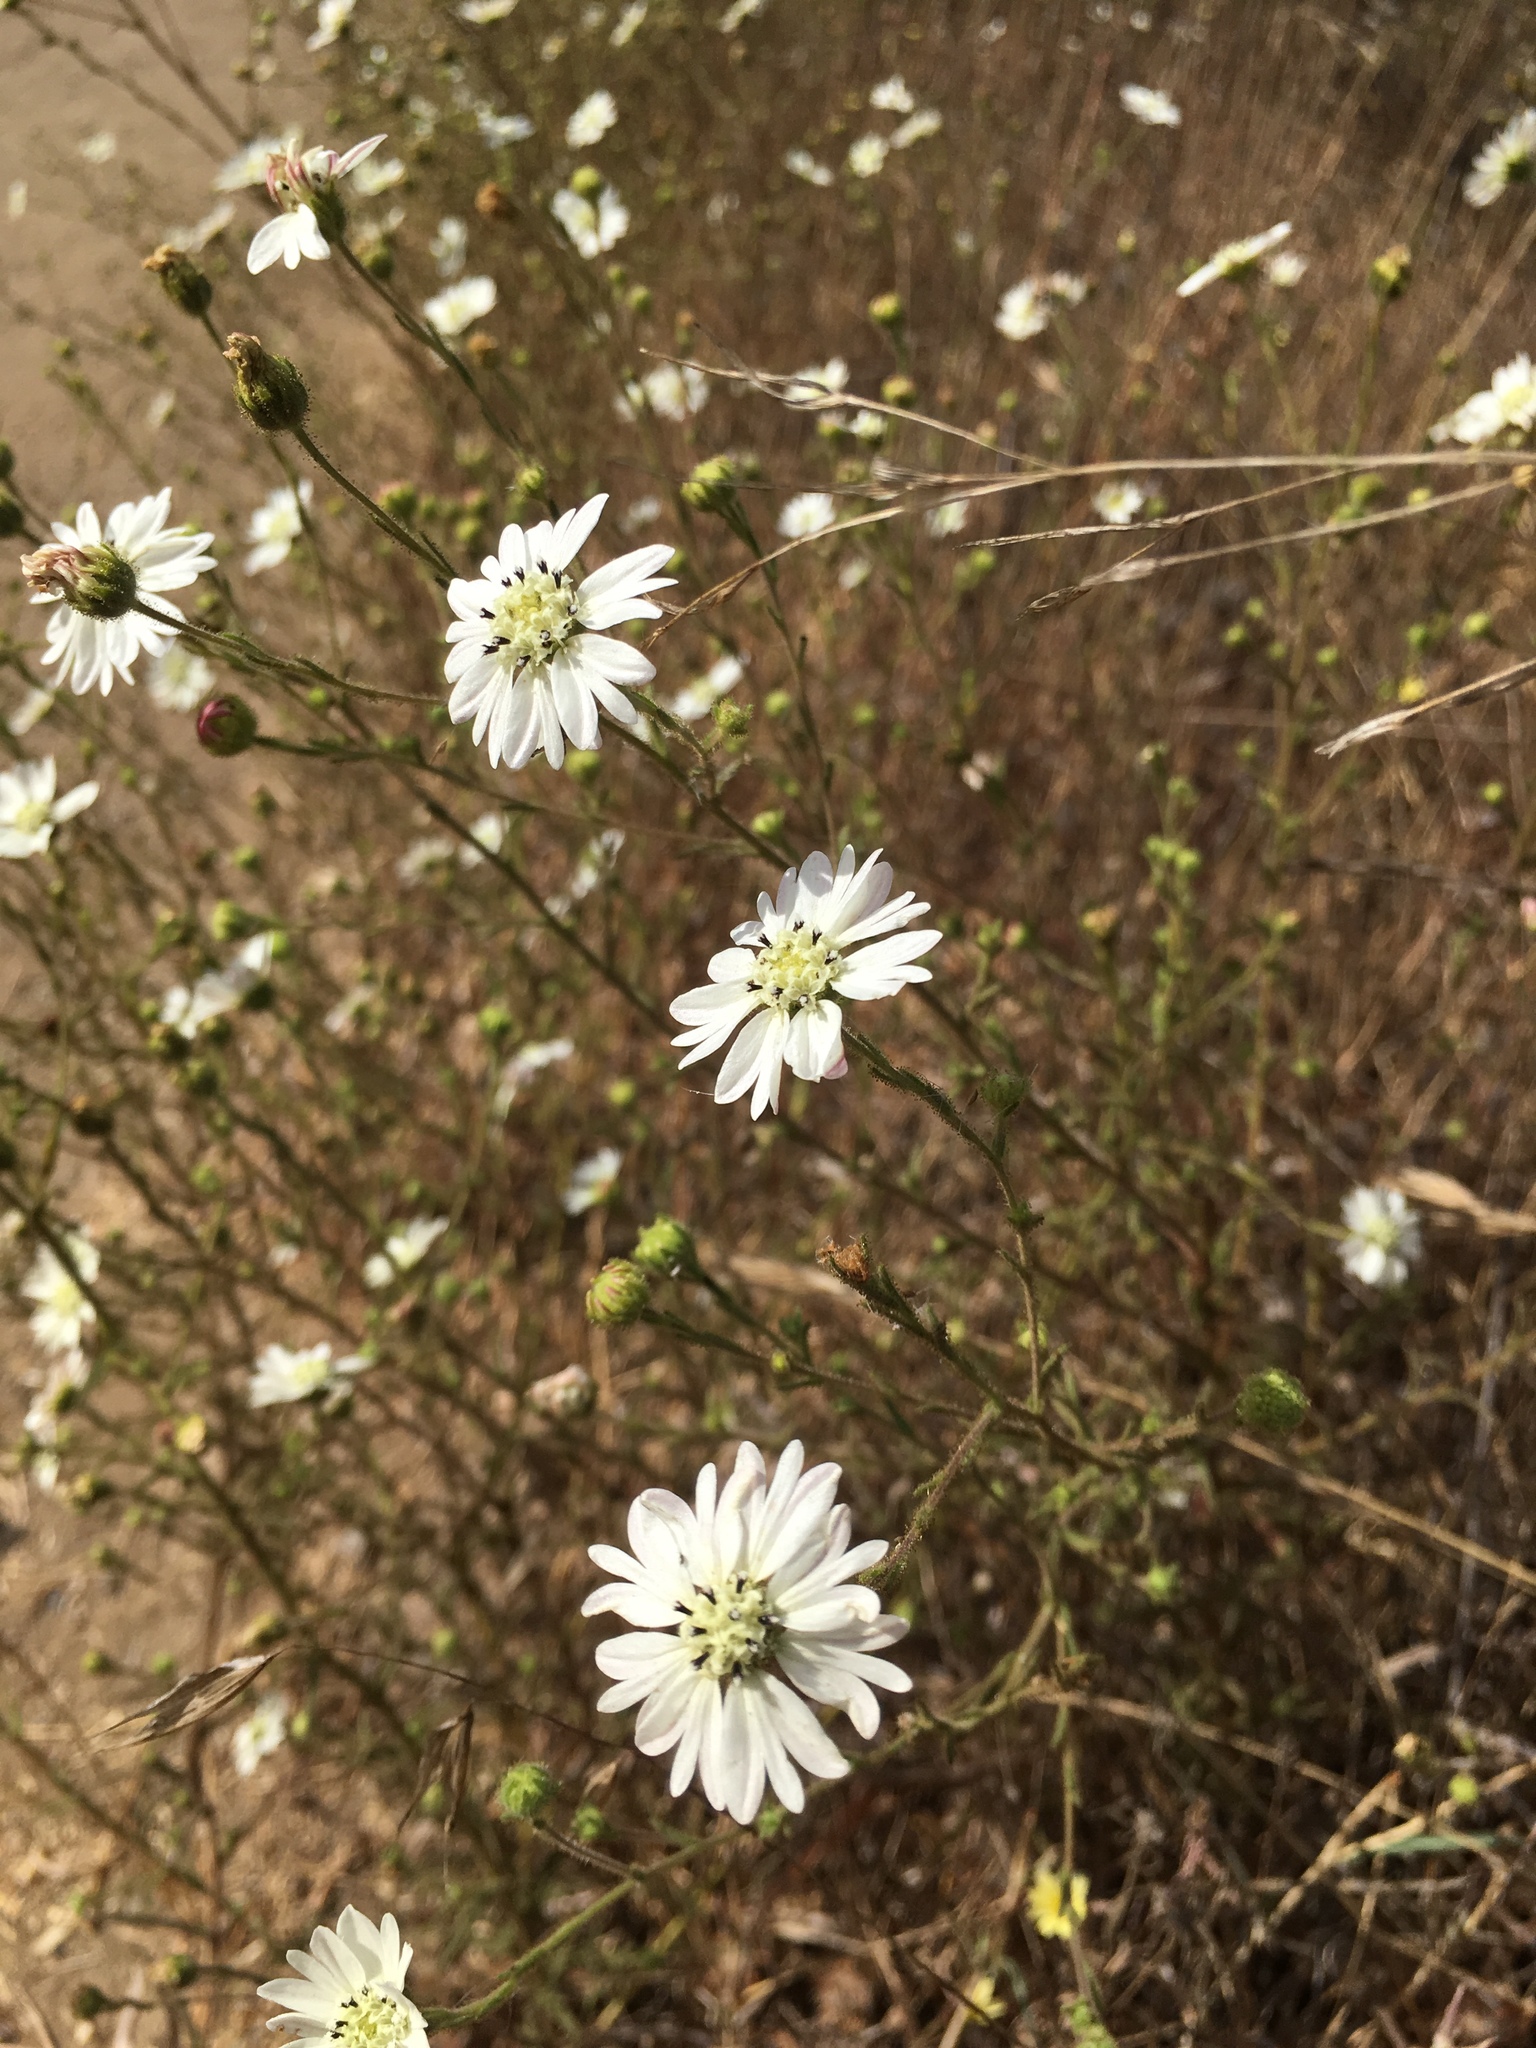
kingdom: Plantae
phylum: Tracheophyta
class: Magnoliopsida
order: Asterales
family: Asteraceae
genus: Hemizonia
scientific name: Hemizonia congesta
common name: Hayfield tarweed
